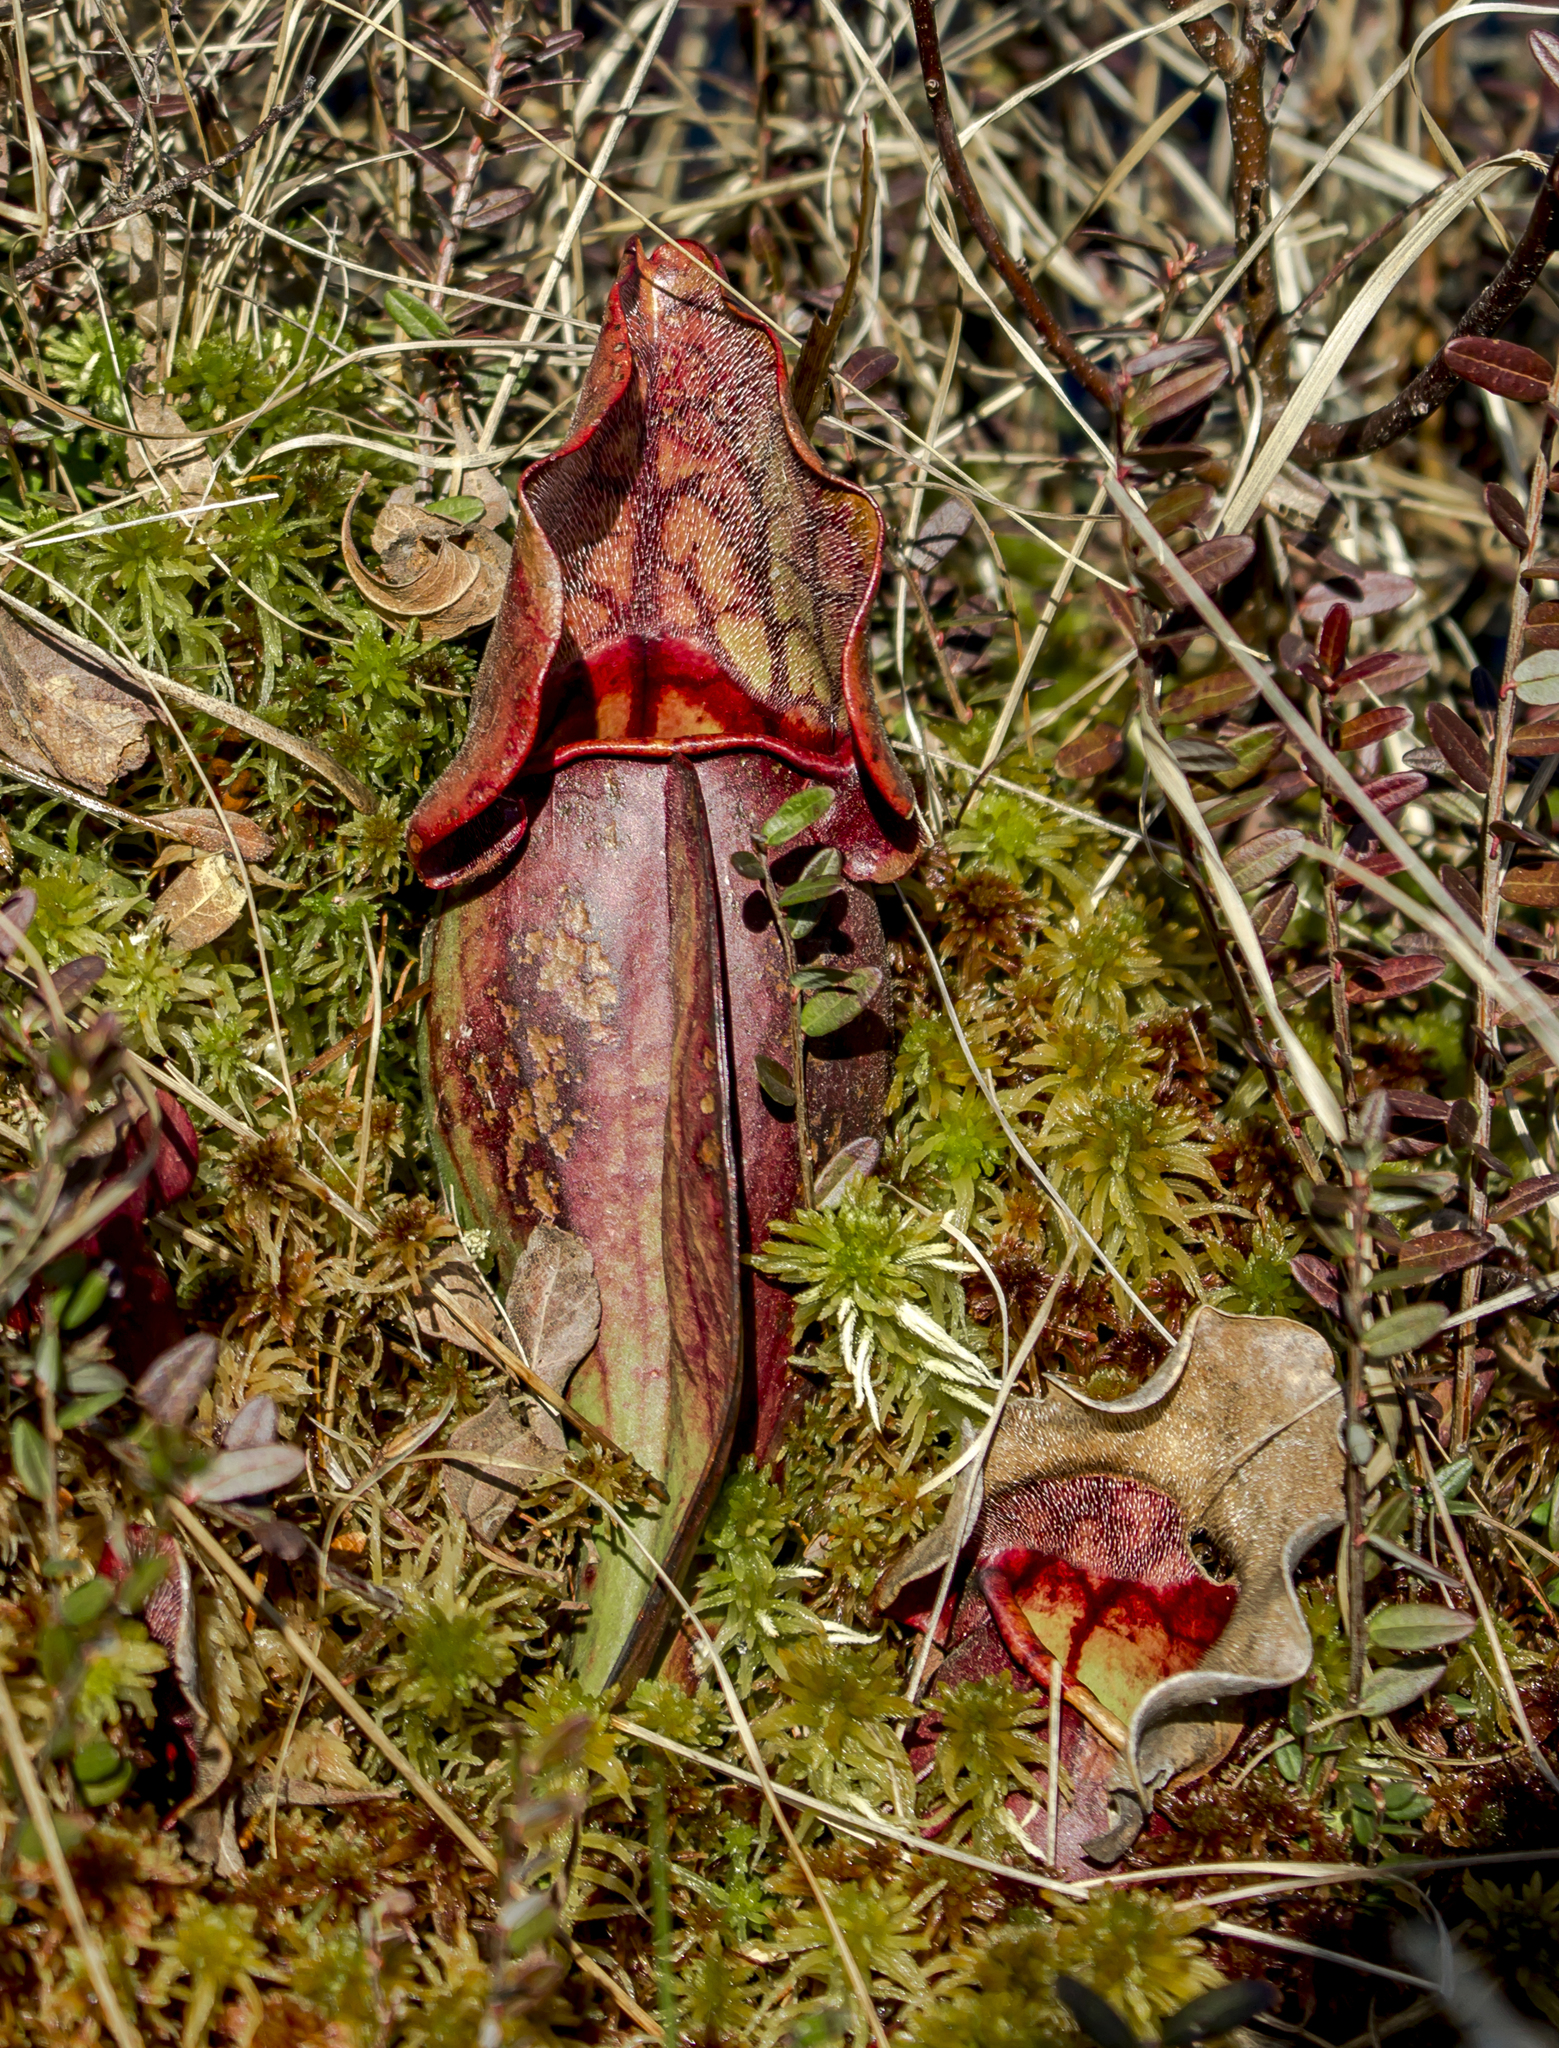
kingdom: Plantae
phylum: Tracheophyta
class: Magnoliopsida
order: Ericales
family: Sarraceniaceae
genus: Sarracenia
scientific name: Sarracenia purpurea
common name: Pitcherplant
